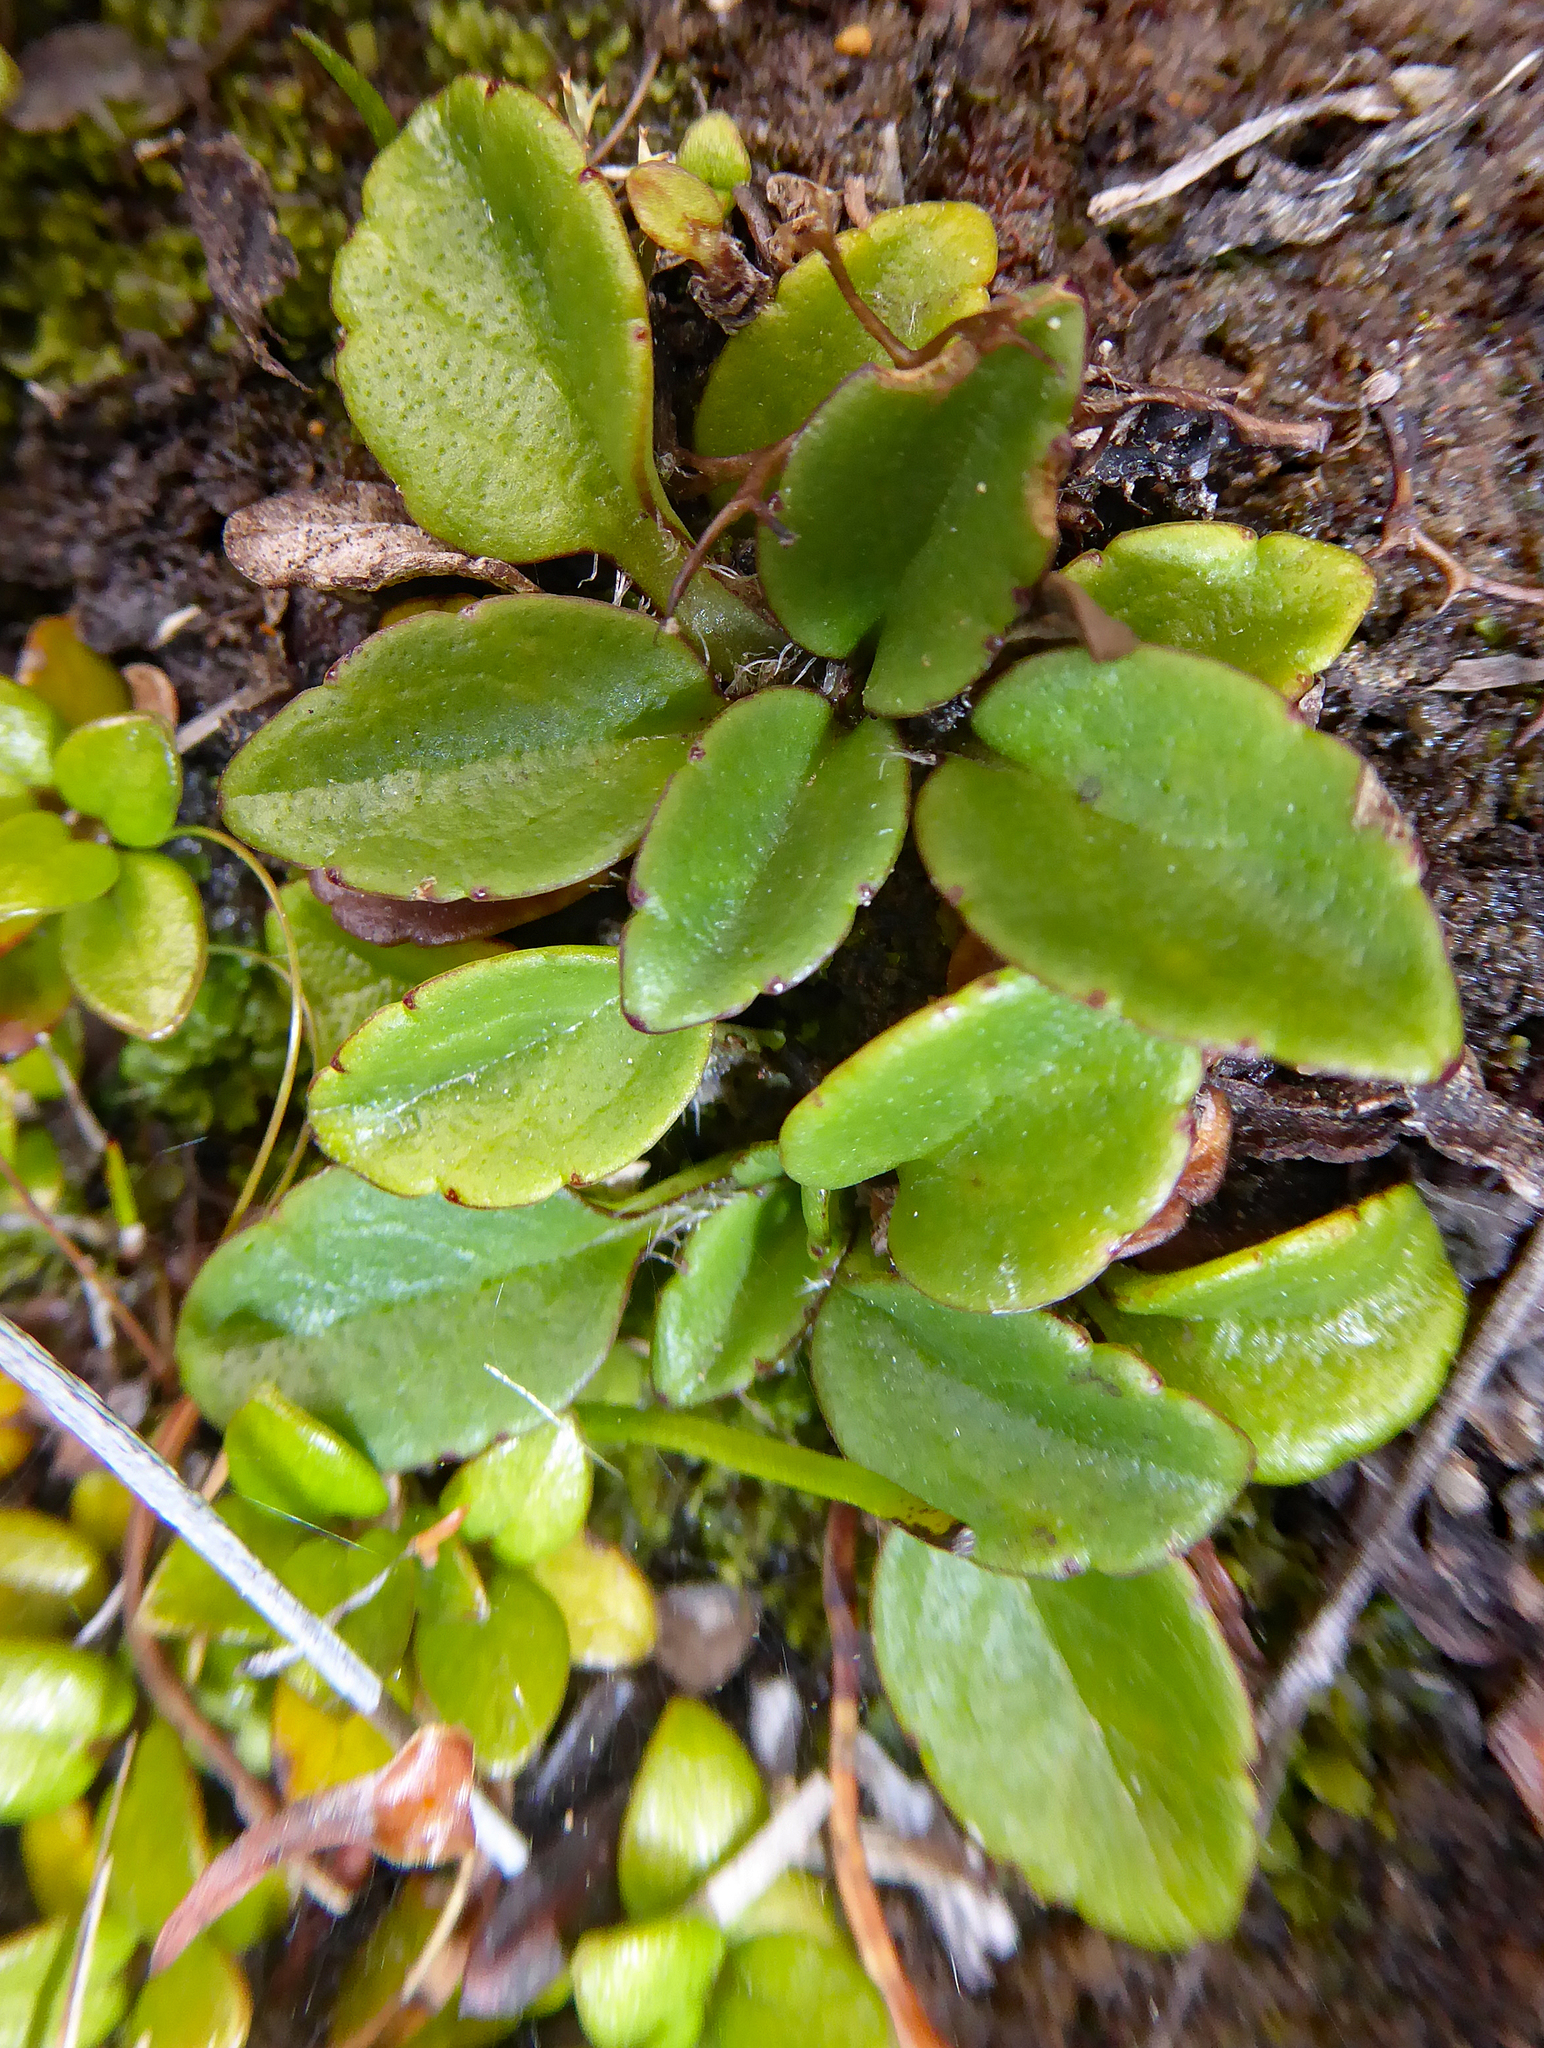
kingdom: Plantae
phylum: Tracheophyta
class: Magnoliopsida
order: Lamiales
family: Plantaginaceae
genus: Ourisia
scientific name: Ourisia vulcanica
